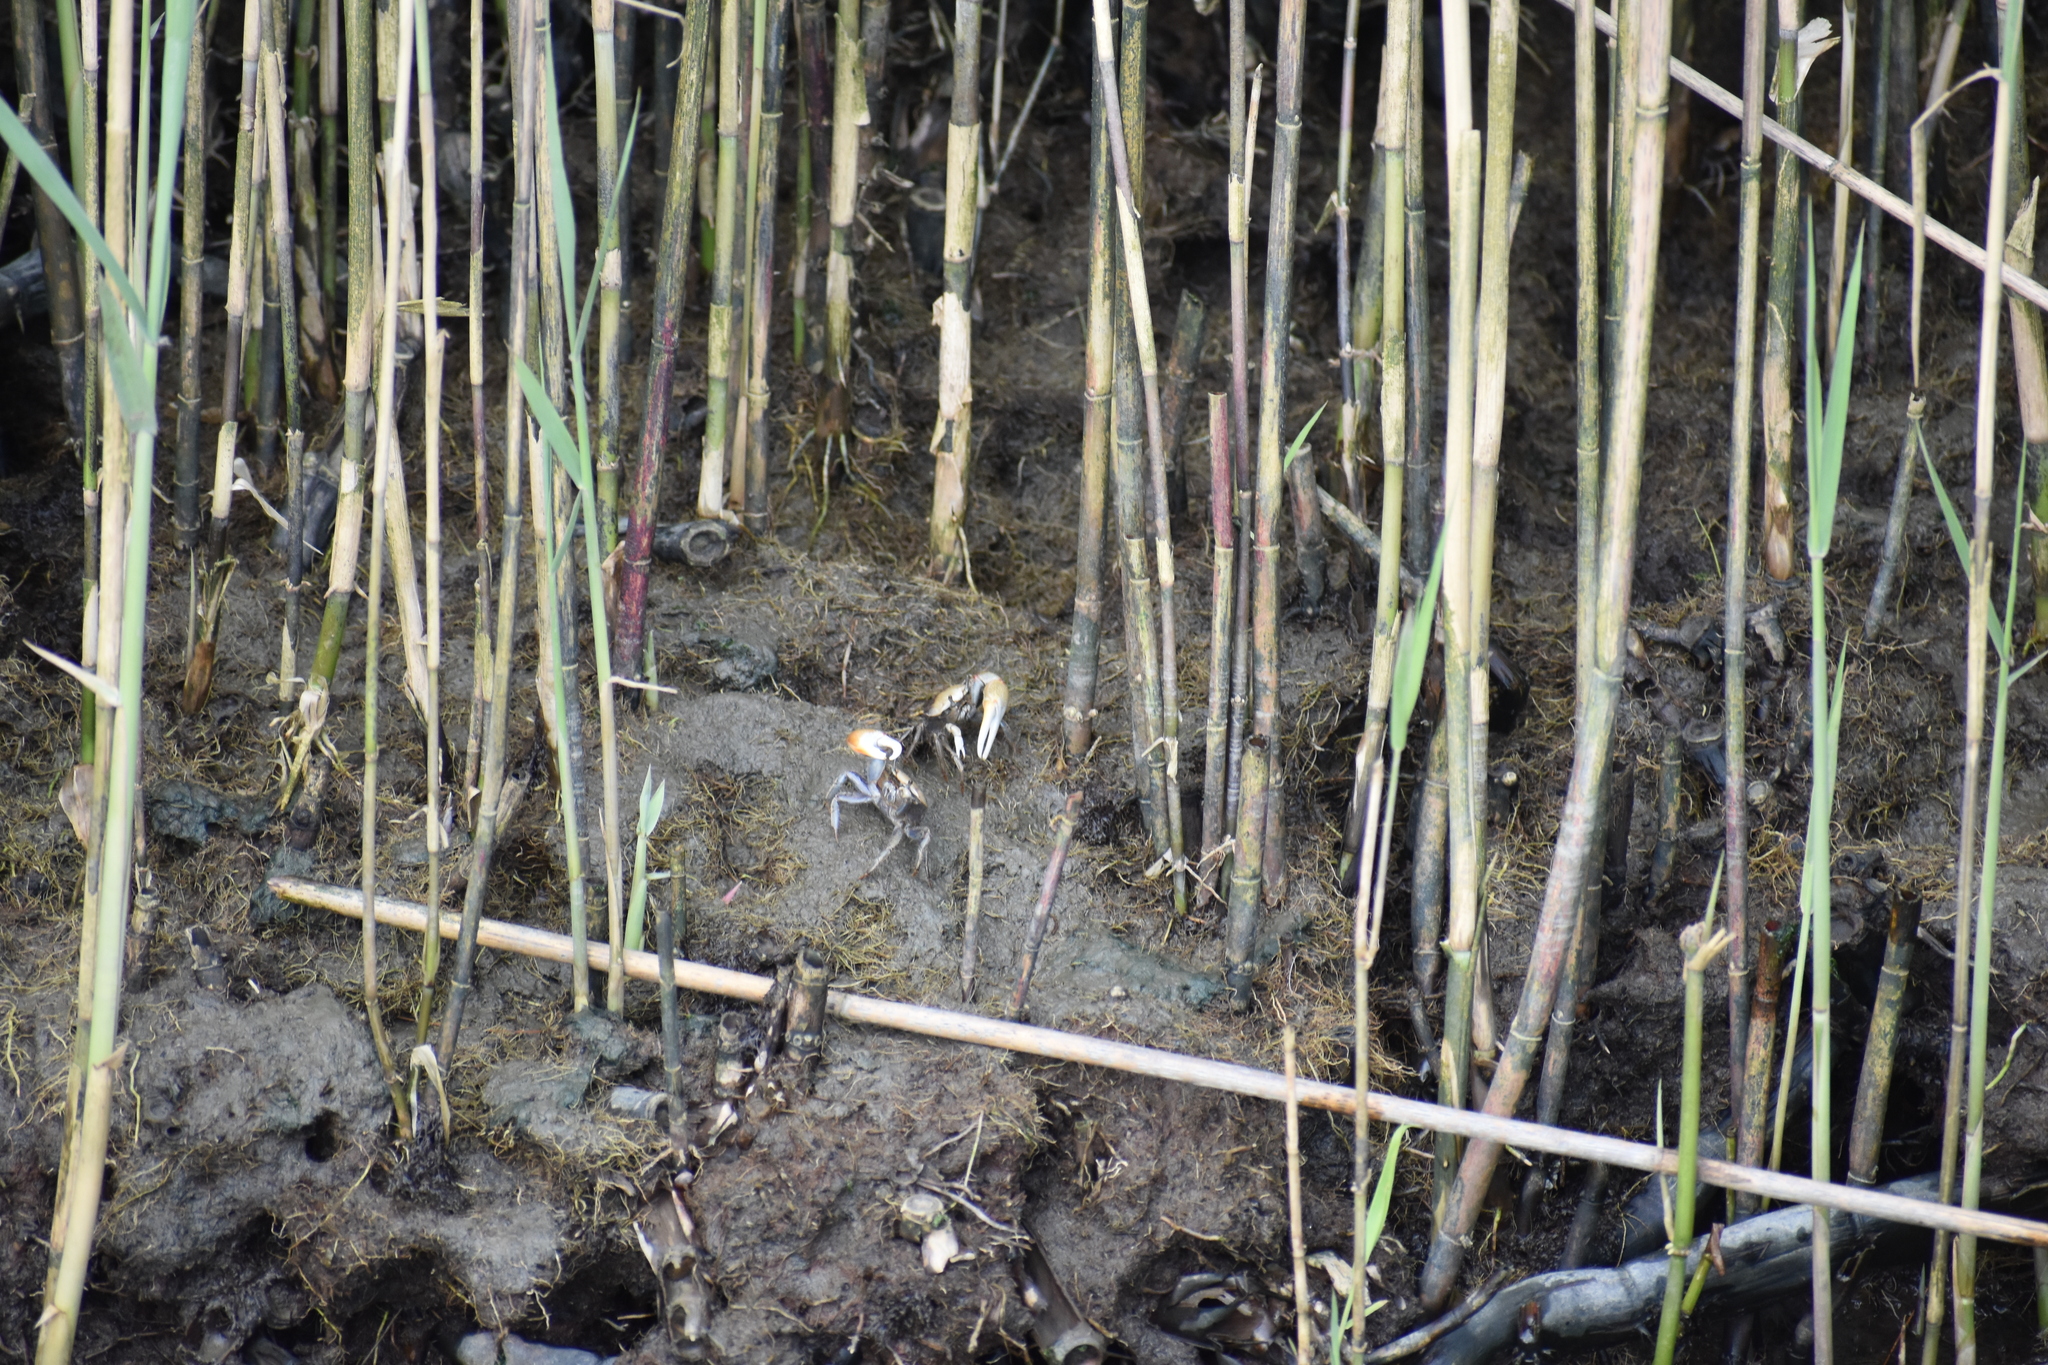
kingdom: Animalia
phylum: Arthropoda
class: Malacostraca
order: Decapoda
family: Ocypodidae
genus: Minuca
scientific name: Minuca minax
